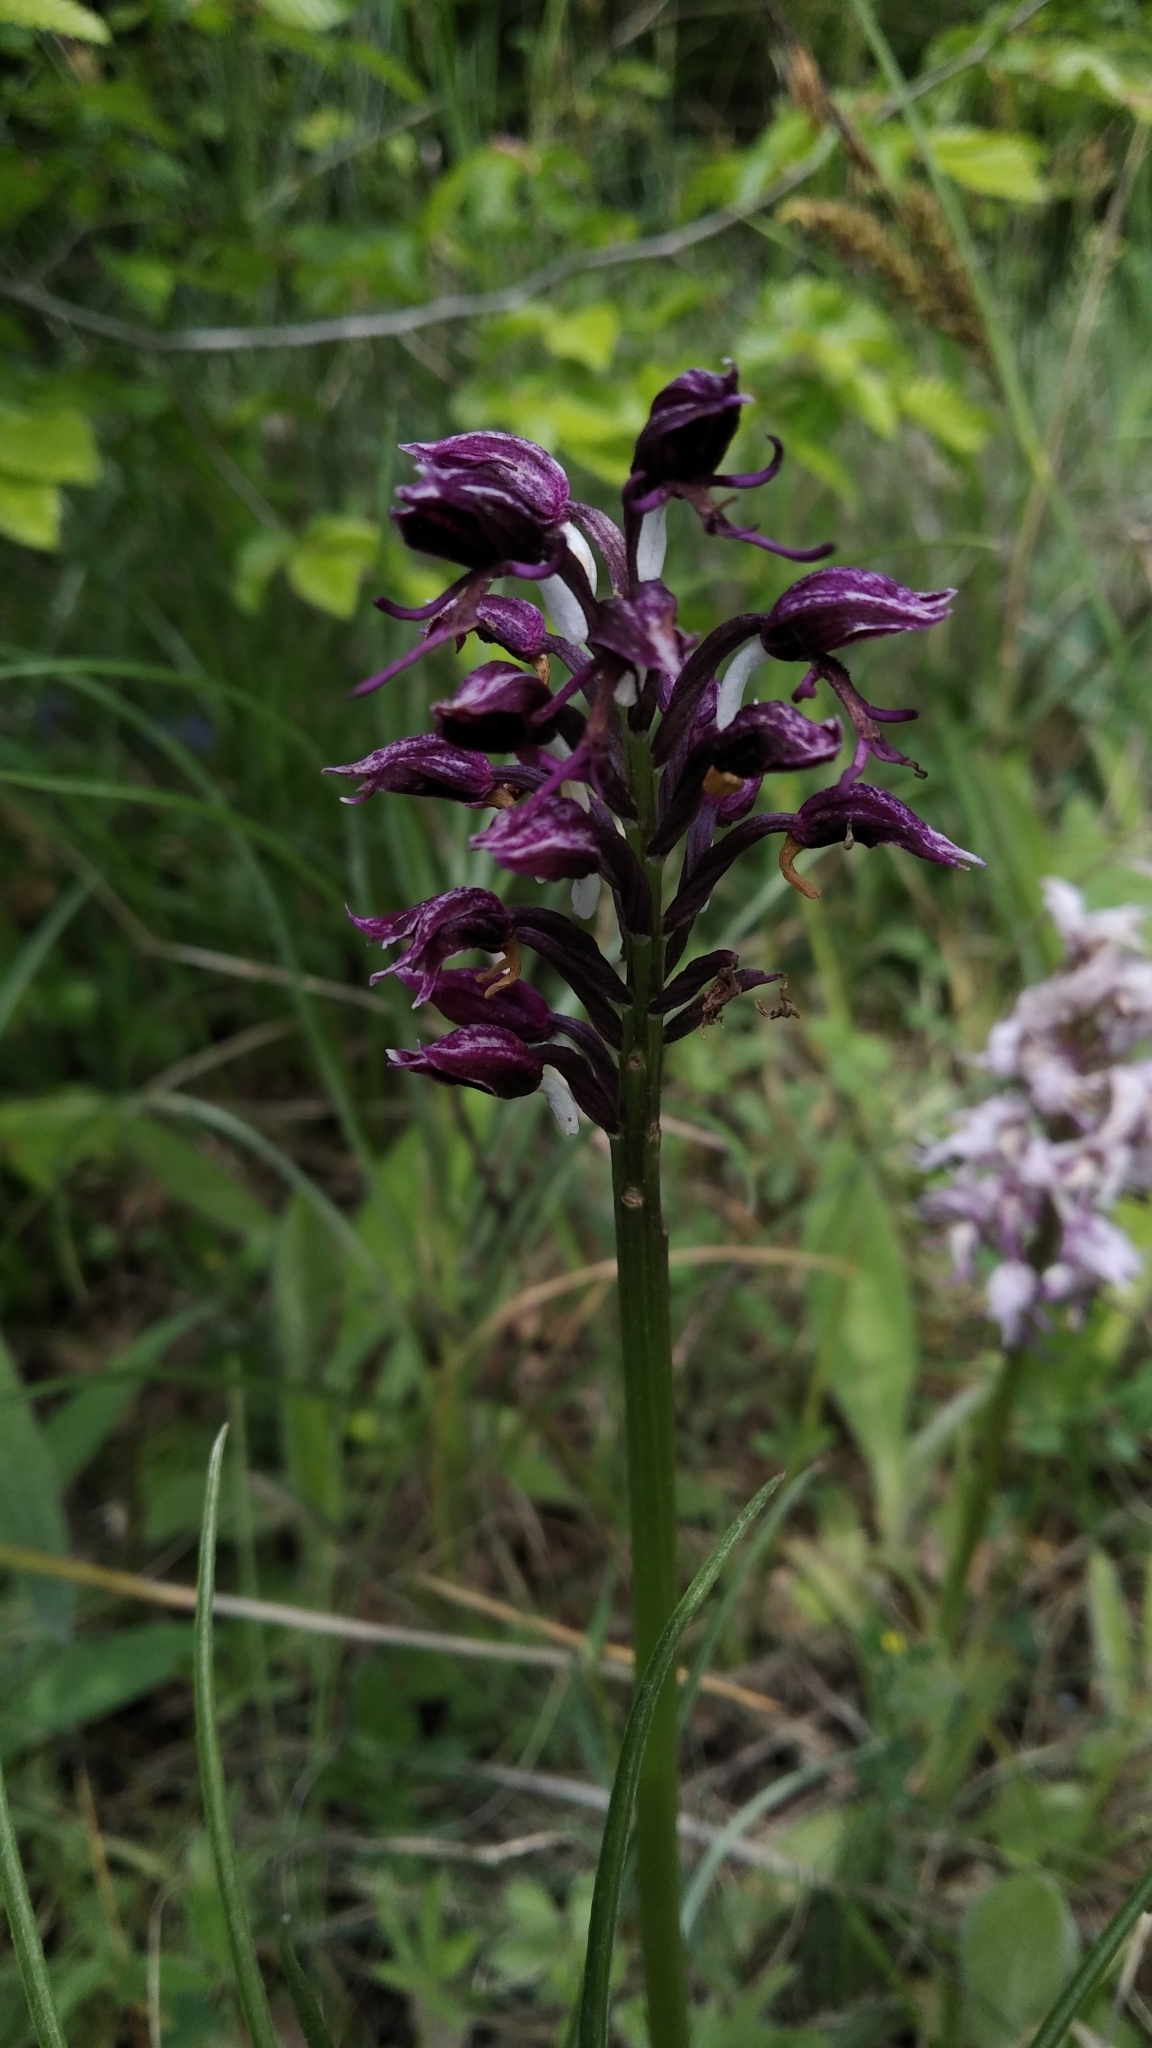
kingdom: Plantae
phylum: Tracheophyta
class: Liliopsida
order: Asparagales
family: Orchidaceae
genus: Orchis
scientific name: Orchis simia
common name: Monkey orchid
